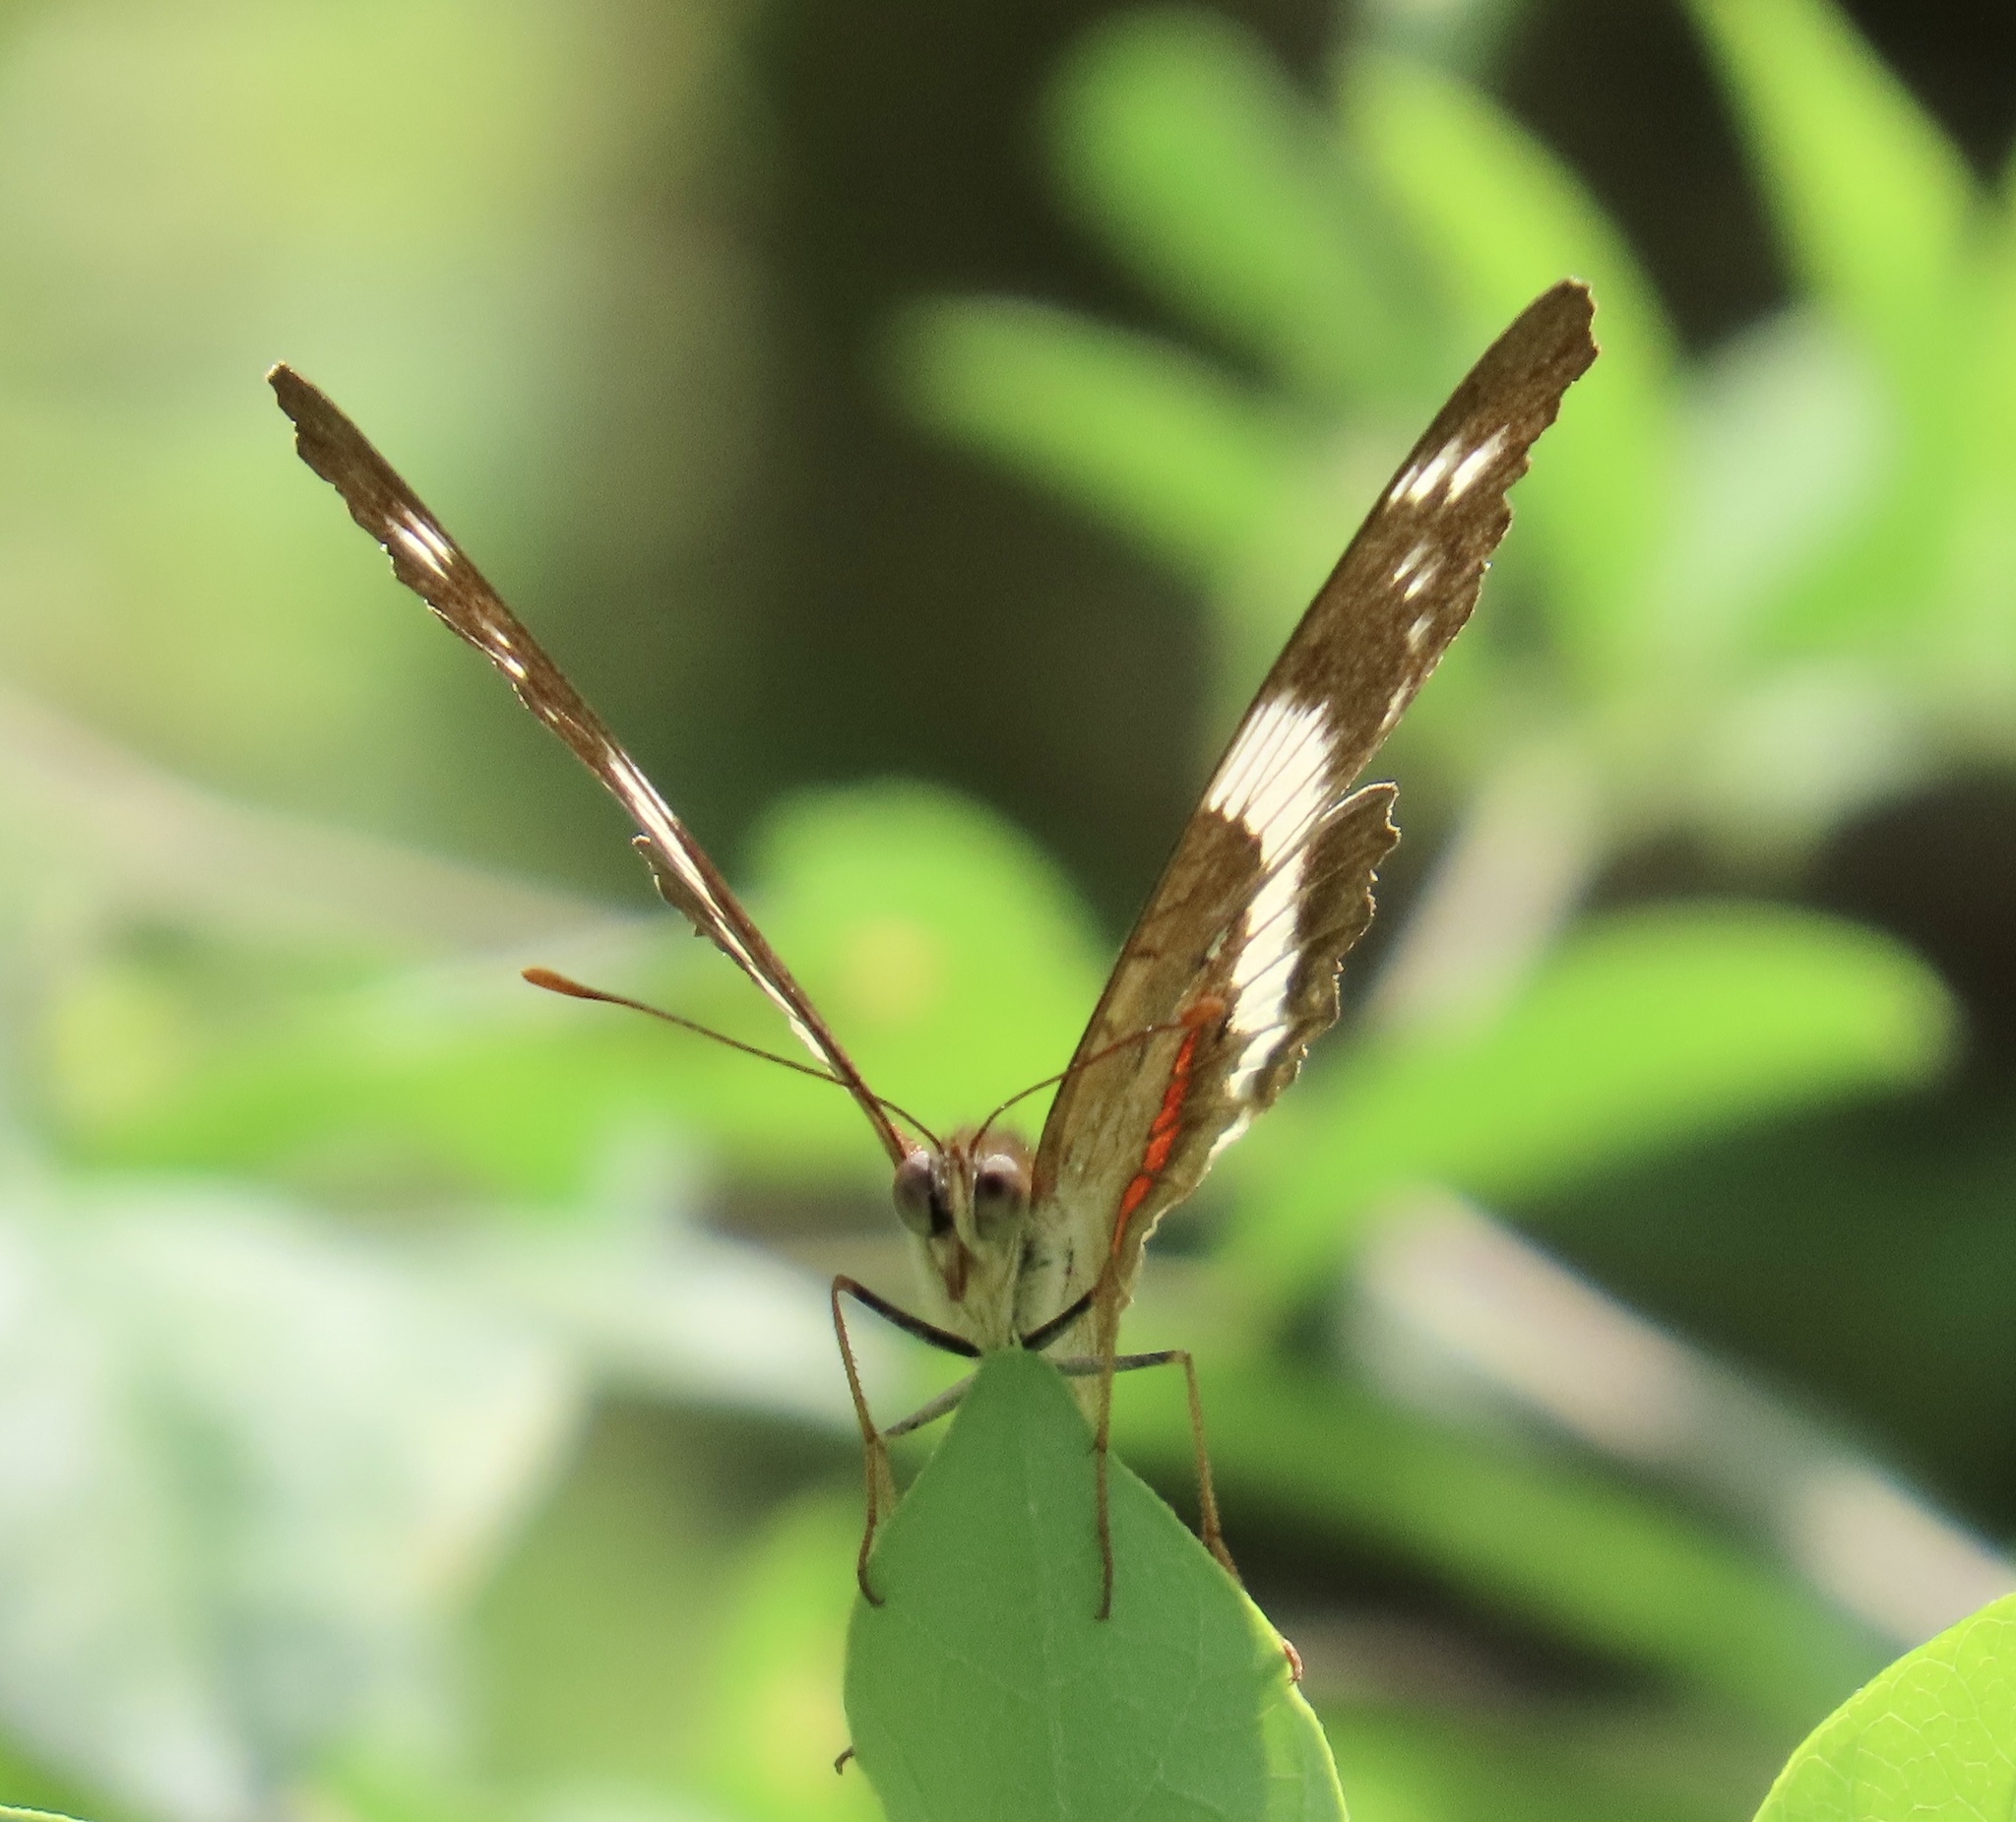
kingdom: Animalia
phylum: Arthropoda
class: Insecta
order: Lepidoptera
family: Nymphalidae
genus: Anartia
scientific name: Anartia fatima
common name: Banded peacock
